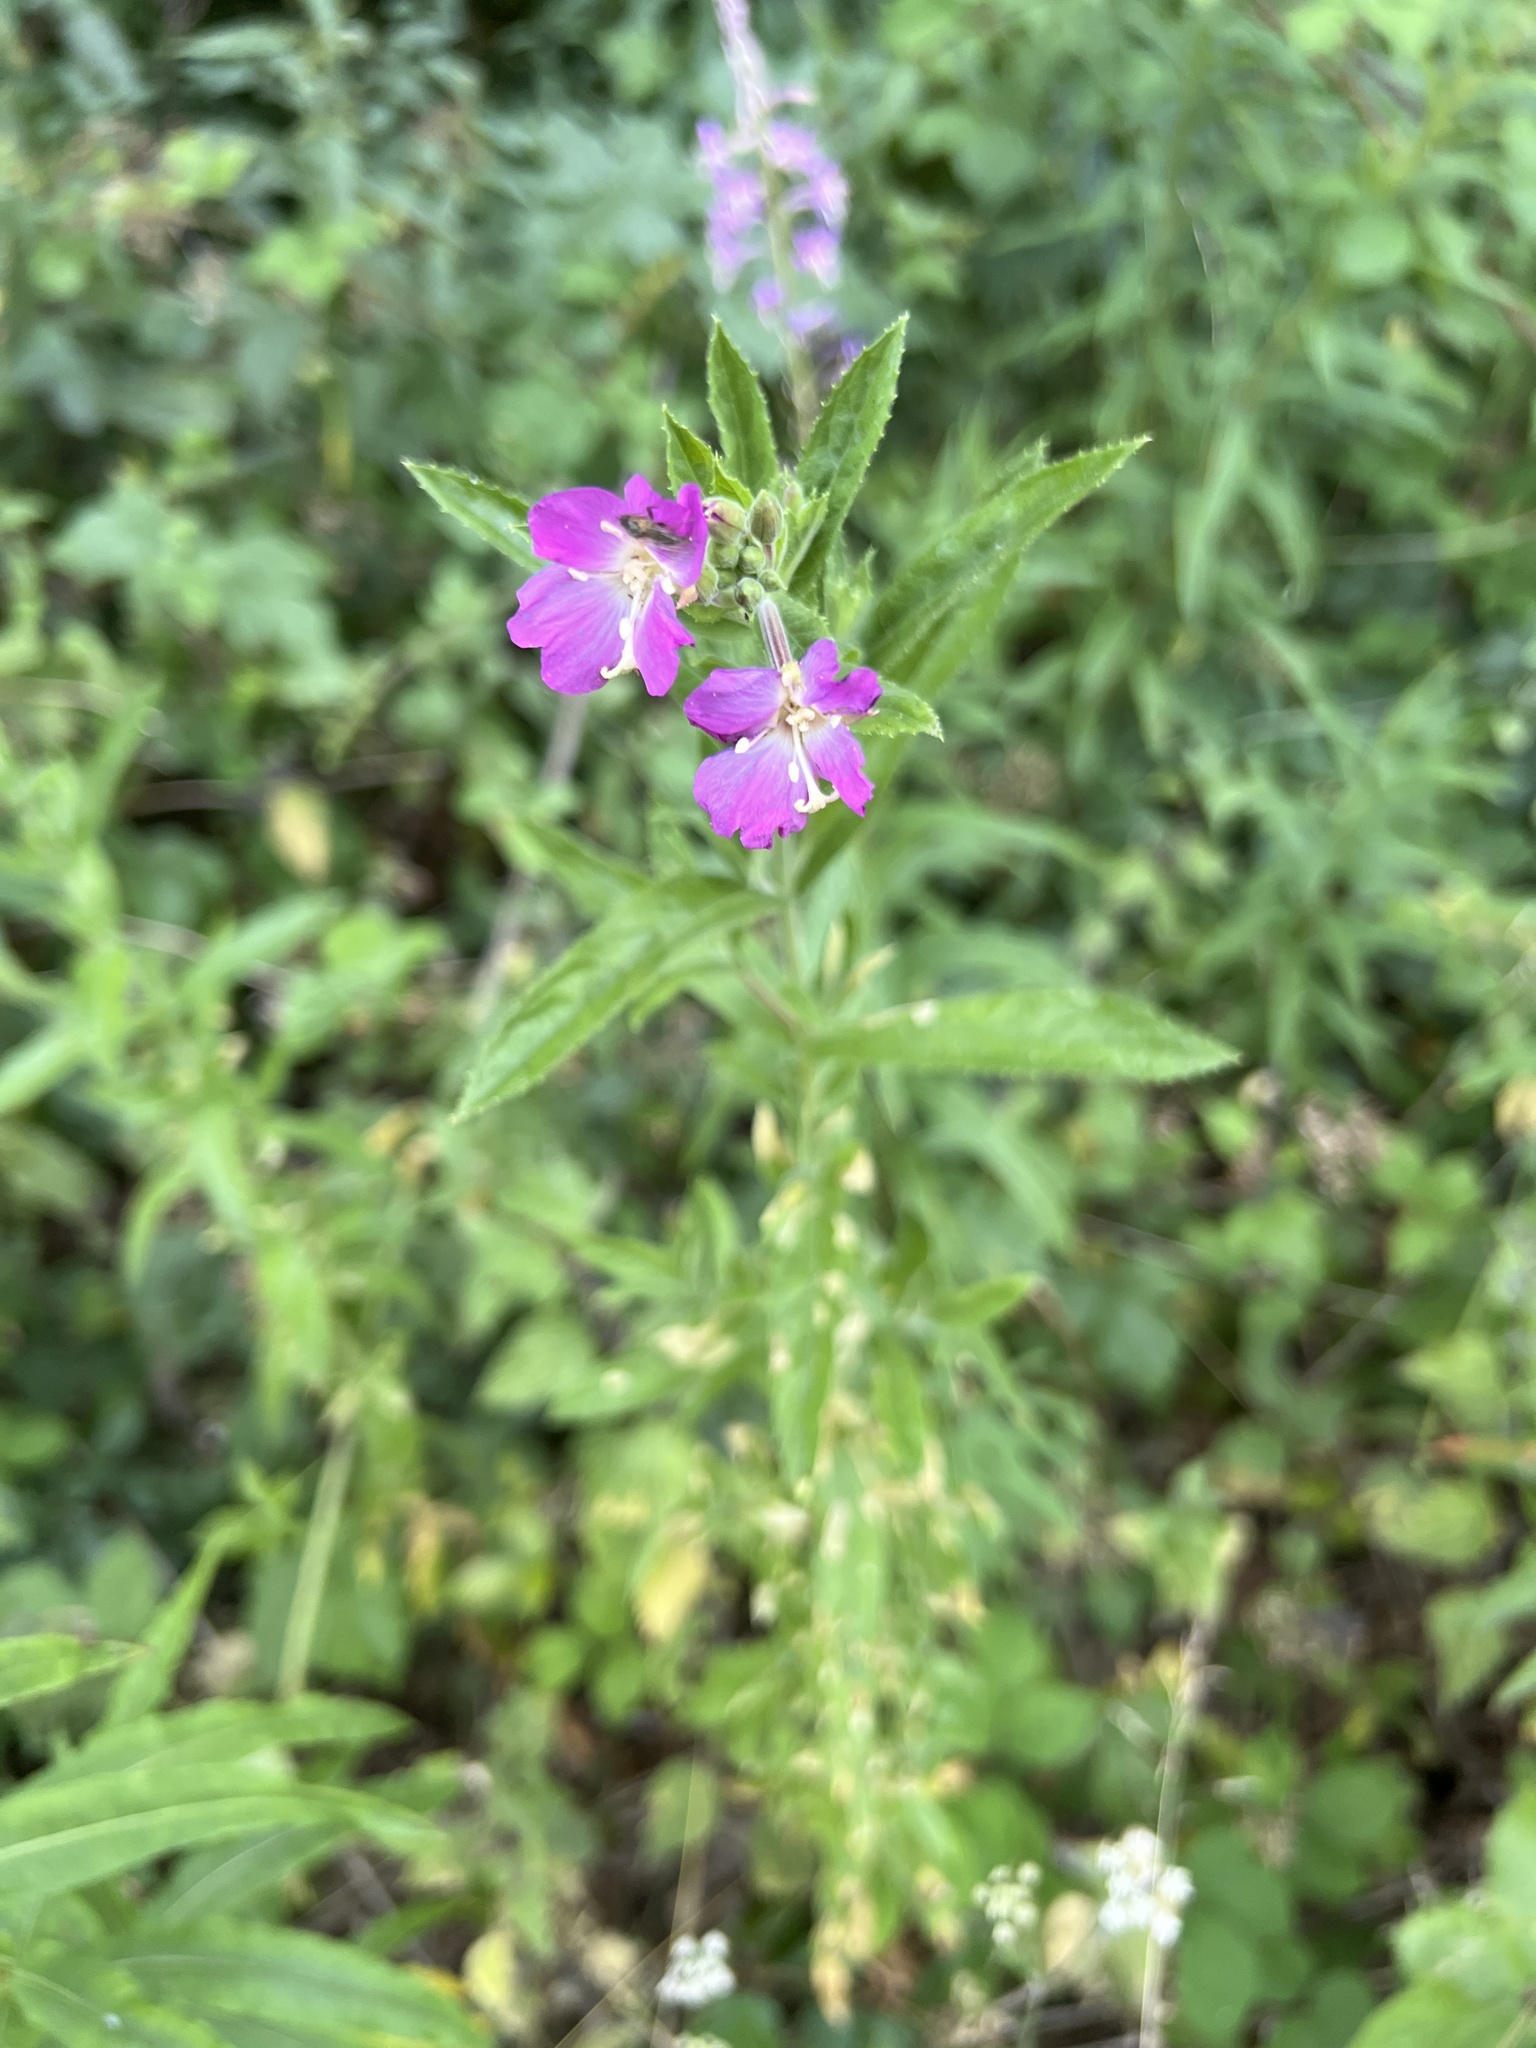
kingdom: Plantae
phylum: Tracheophyta
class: Magnoliopsida
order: Myrtales
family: Onagraceae
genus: Epilobium
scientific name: Epilobium hirsutum
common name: Great willowherb
